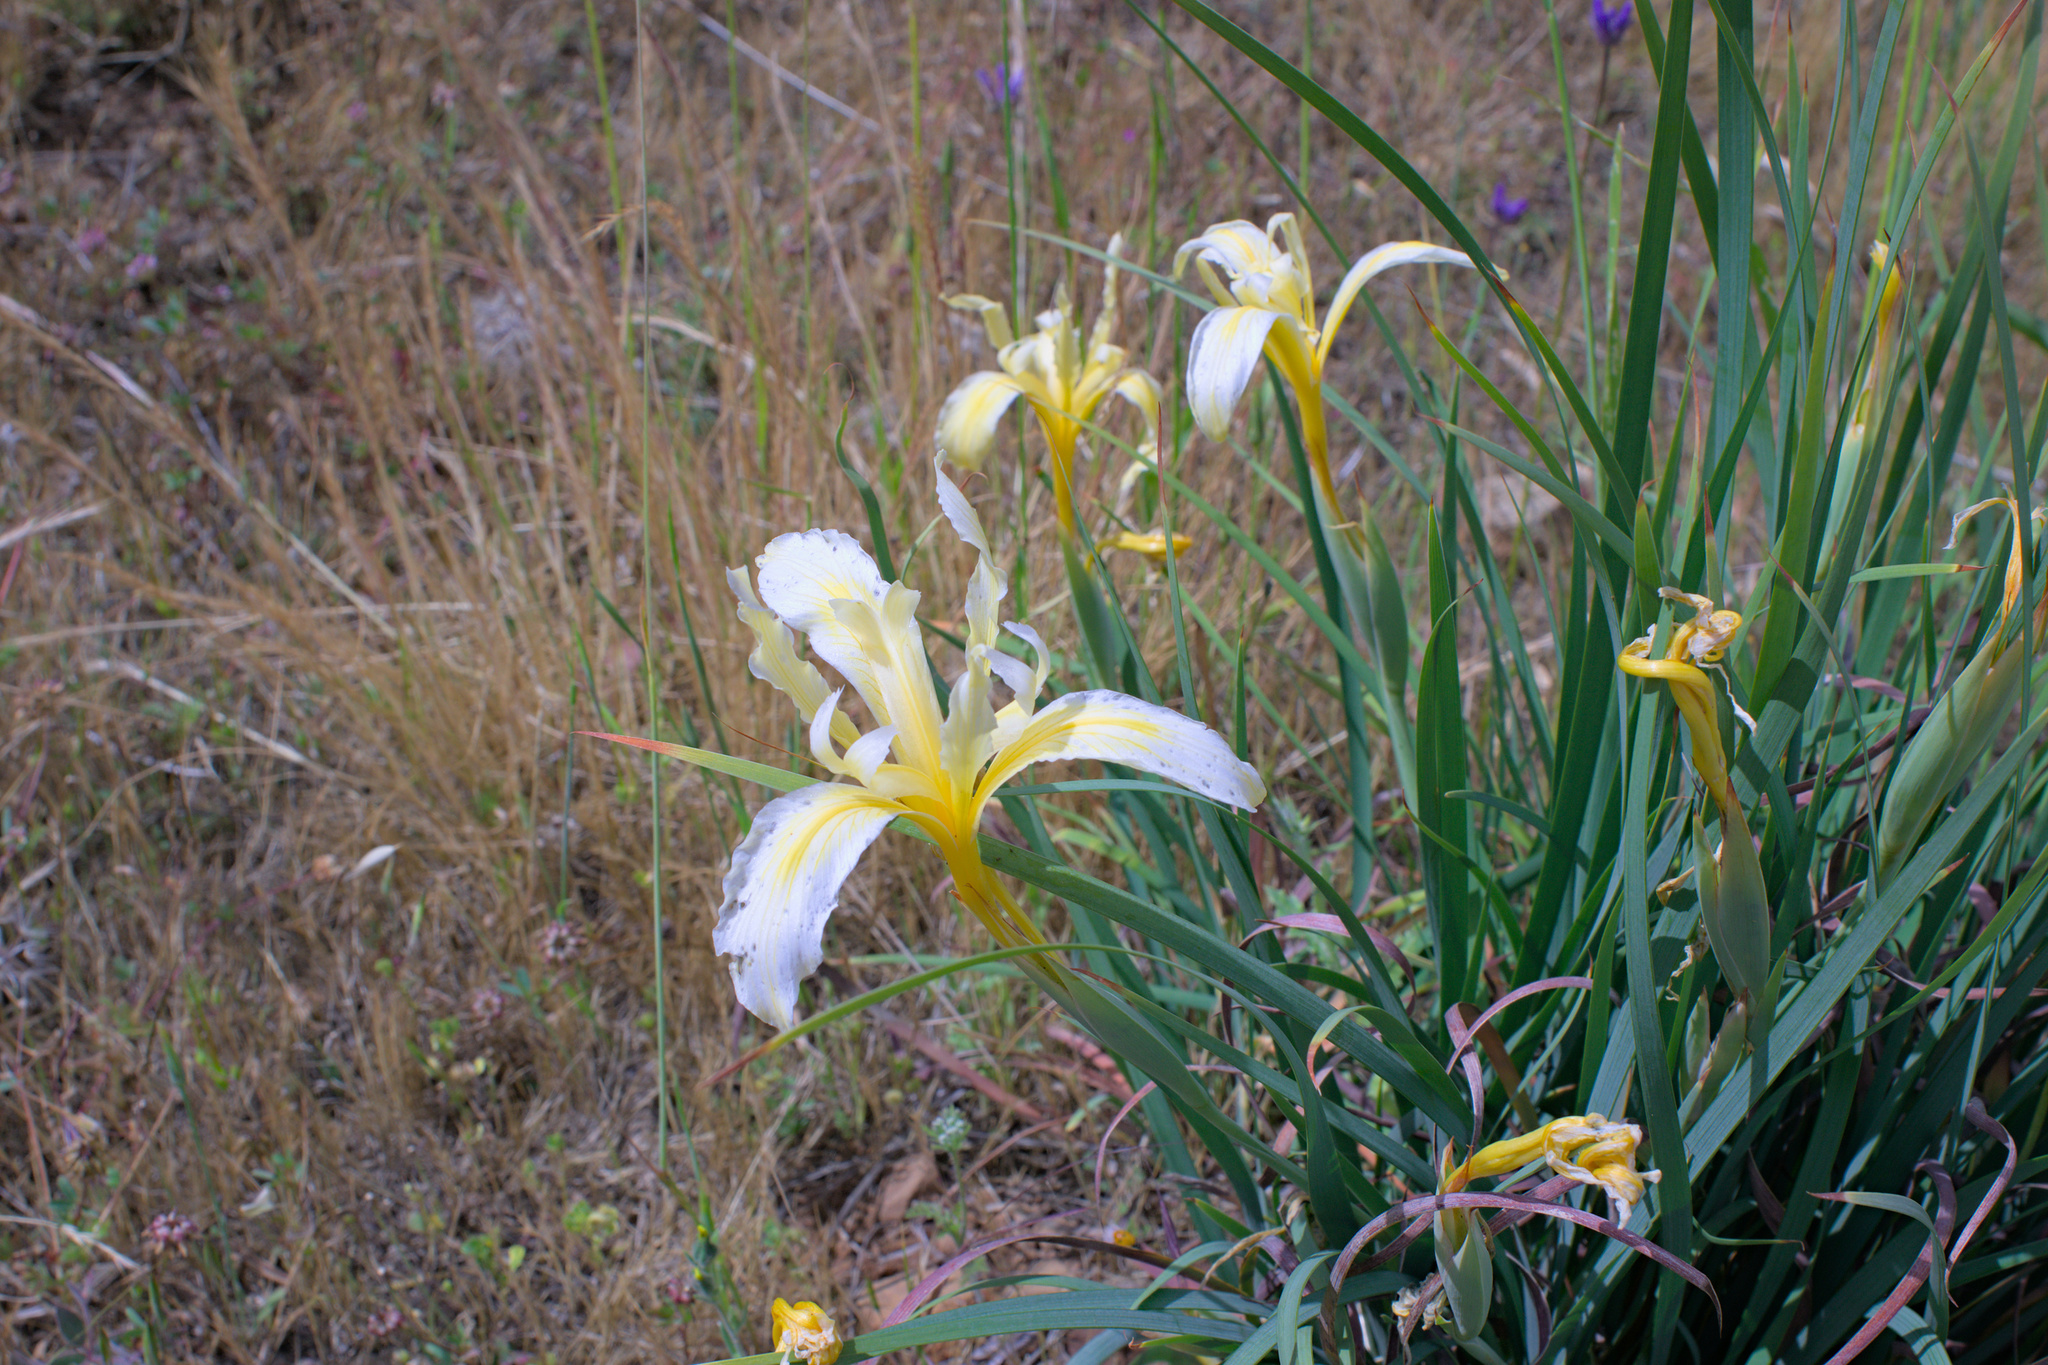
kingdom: Plantae
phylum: Tracheophyta
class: Liliopsida
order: Asparagales
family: Iridaceae
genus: Iris
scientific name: Iris fernaldii
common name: Fernald's iris
